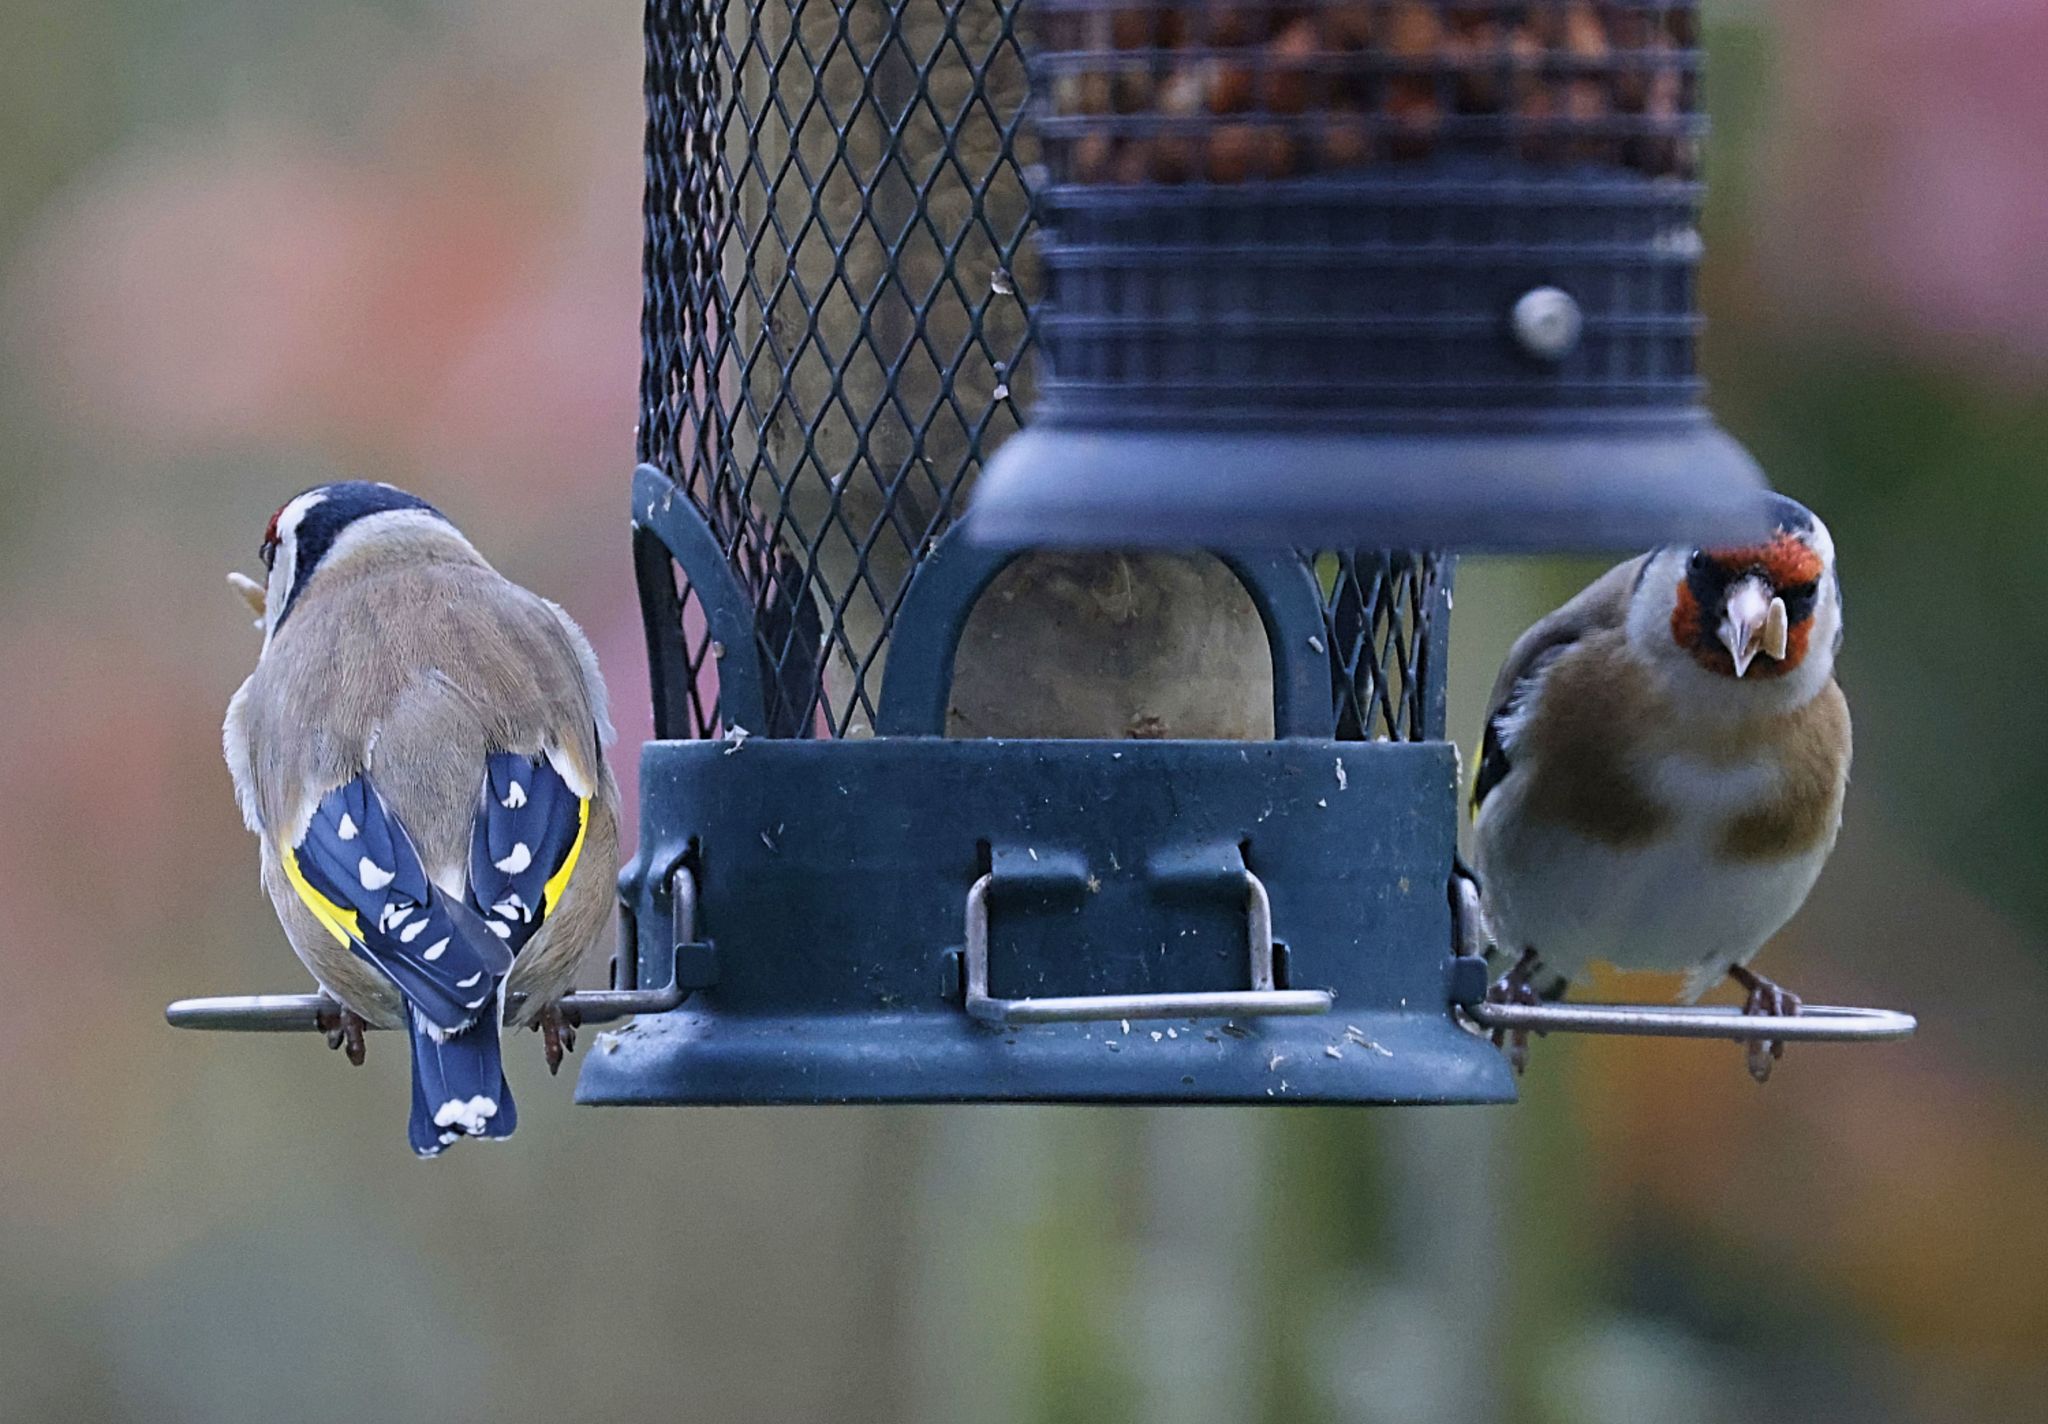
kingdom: Animalia
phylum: Chordata
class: Aves
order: Passeriformes
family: Fringillidae
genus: Carduelis
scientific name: Carduelis carduelis
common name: European goldfinch
